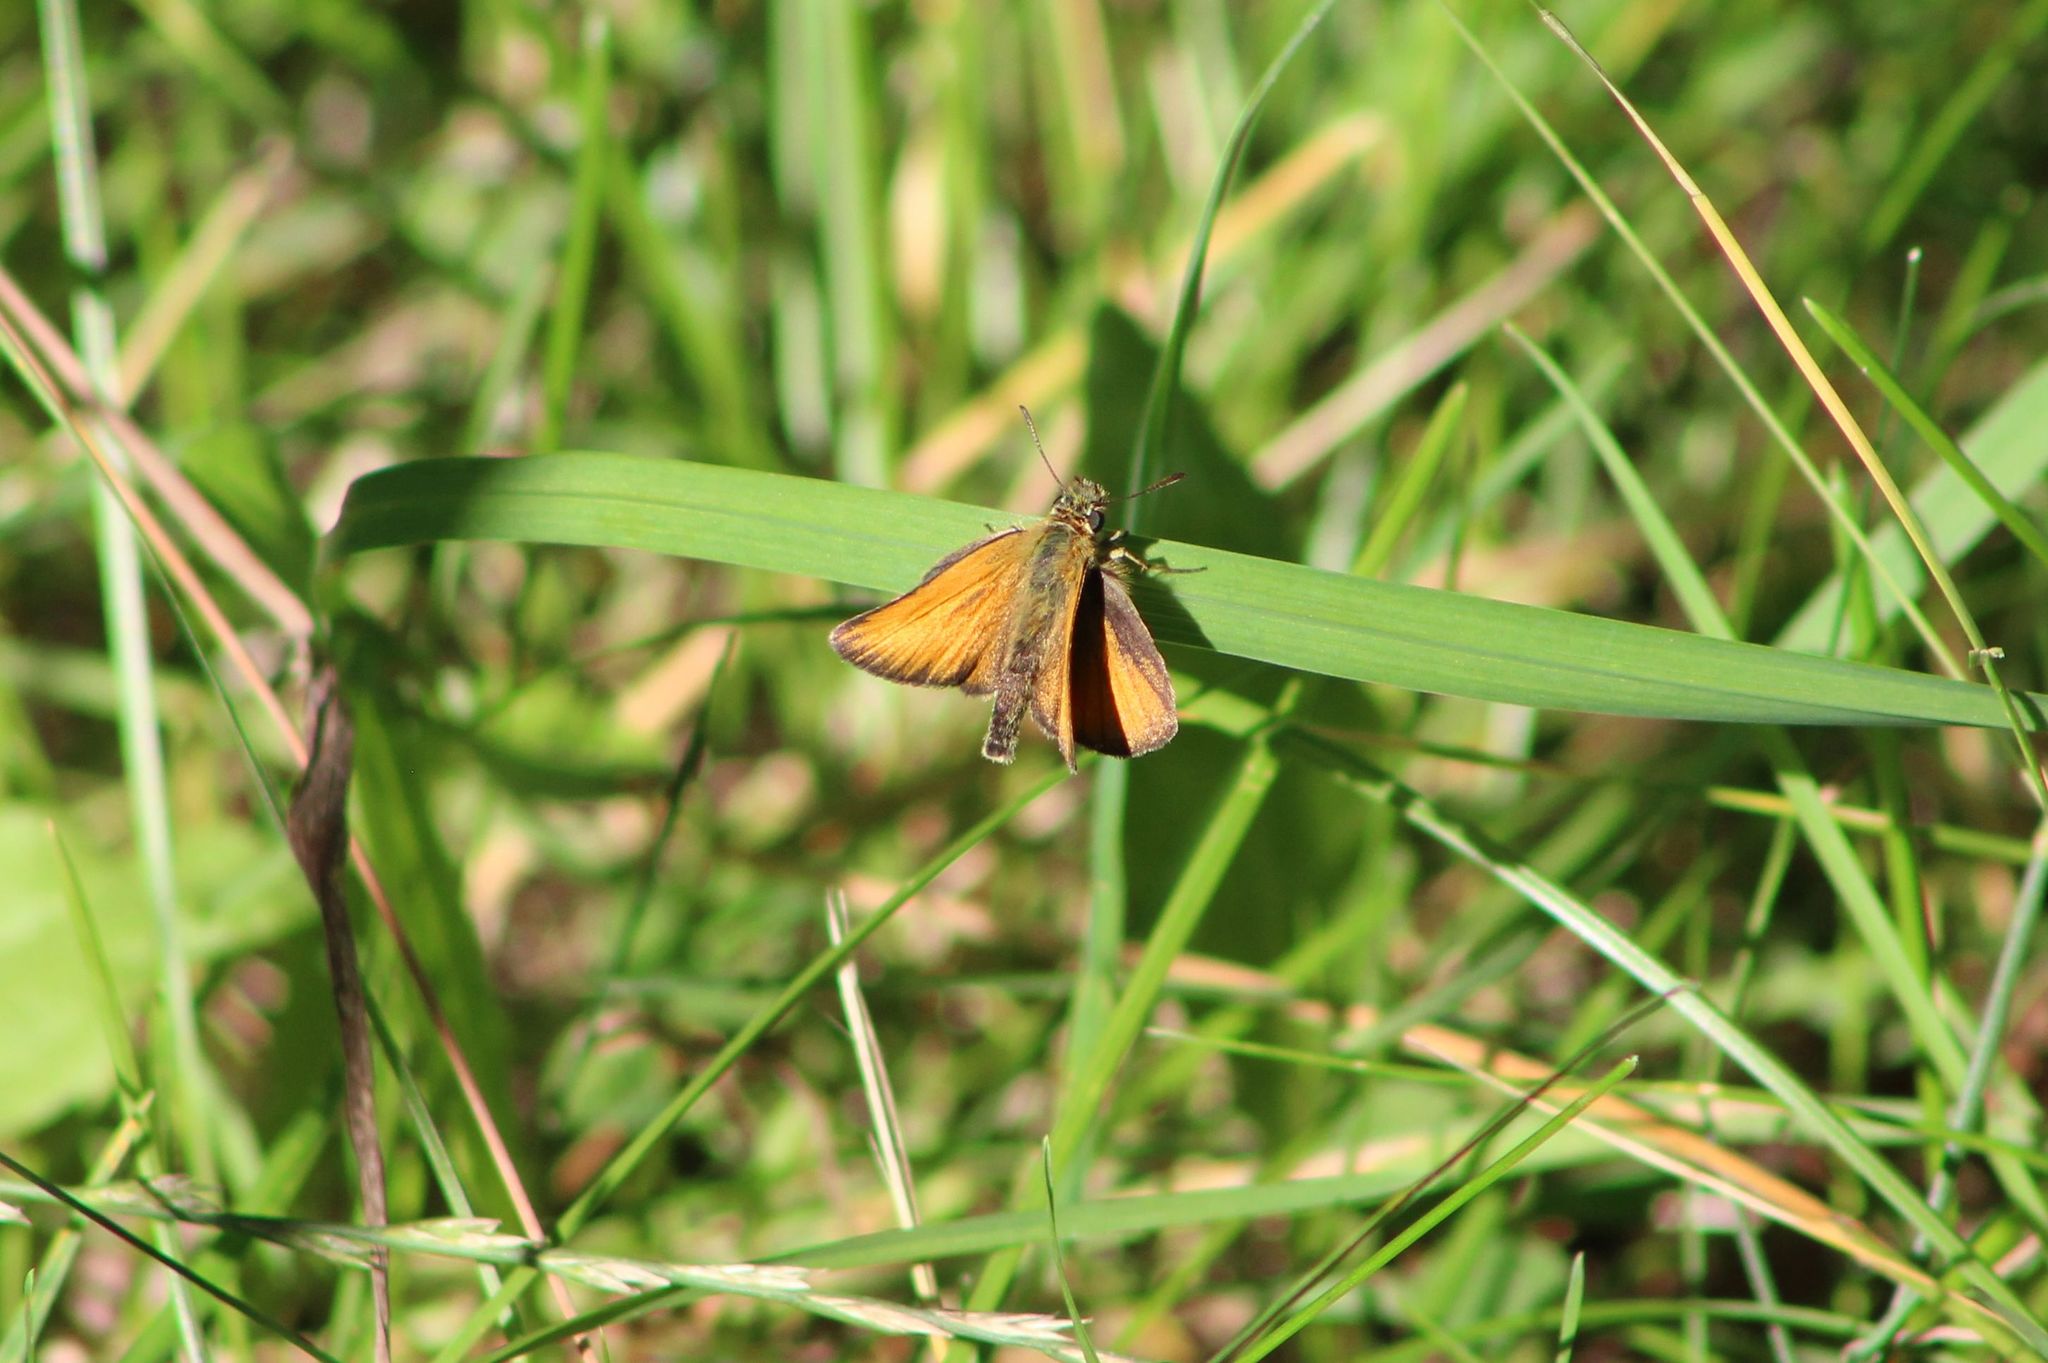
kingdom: Animalia
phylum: Arthropoda
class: Insecta
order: Lepidoptera
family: Hesperiidae
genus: Thymelicus
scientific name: Thymelicus lineola
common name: Essex skipper
